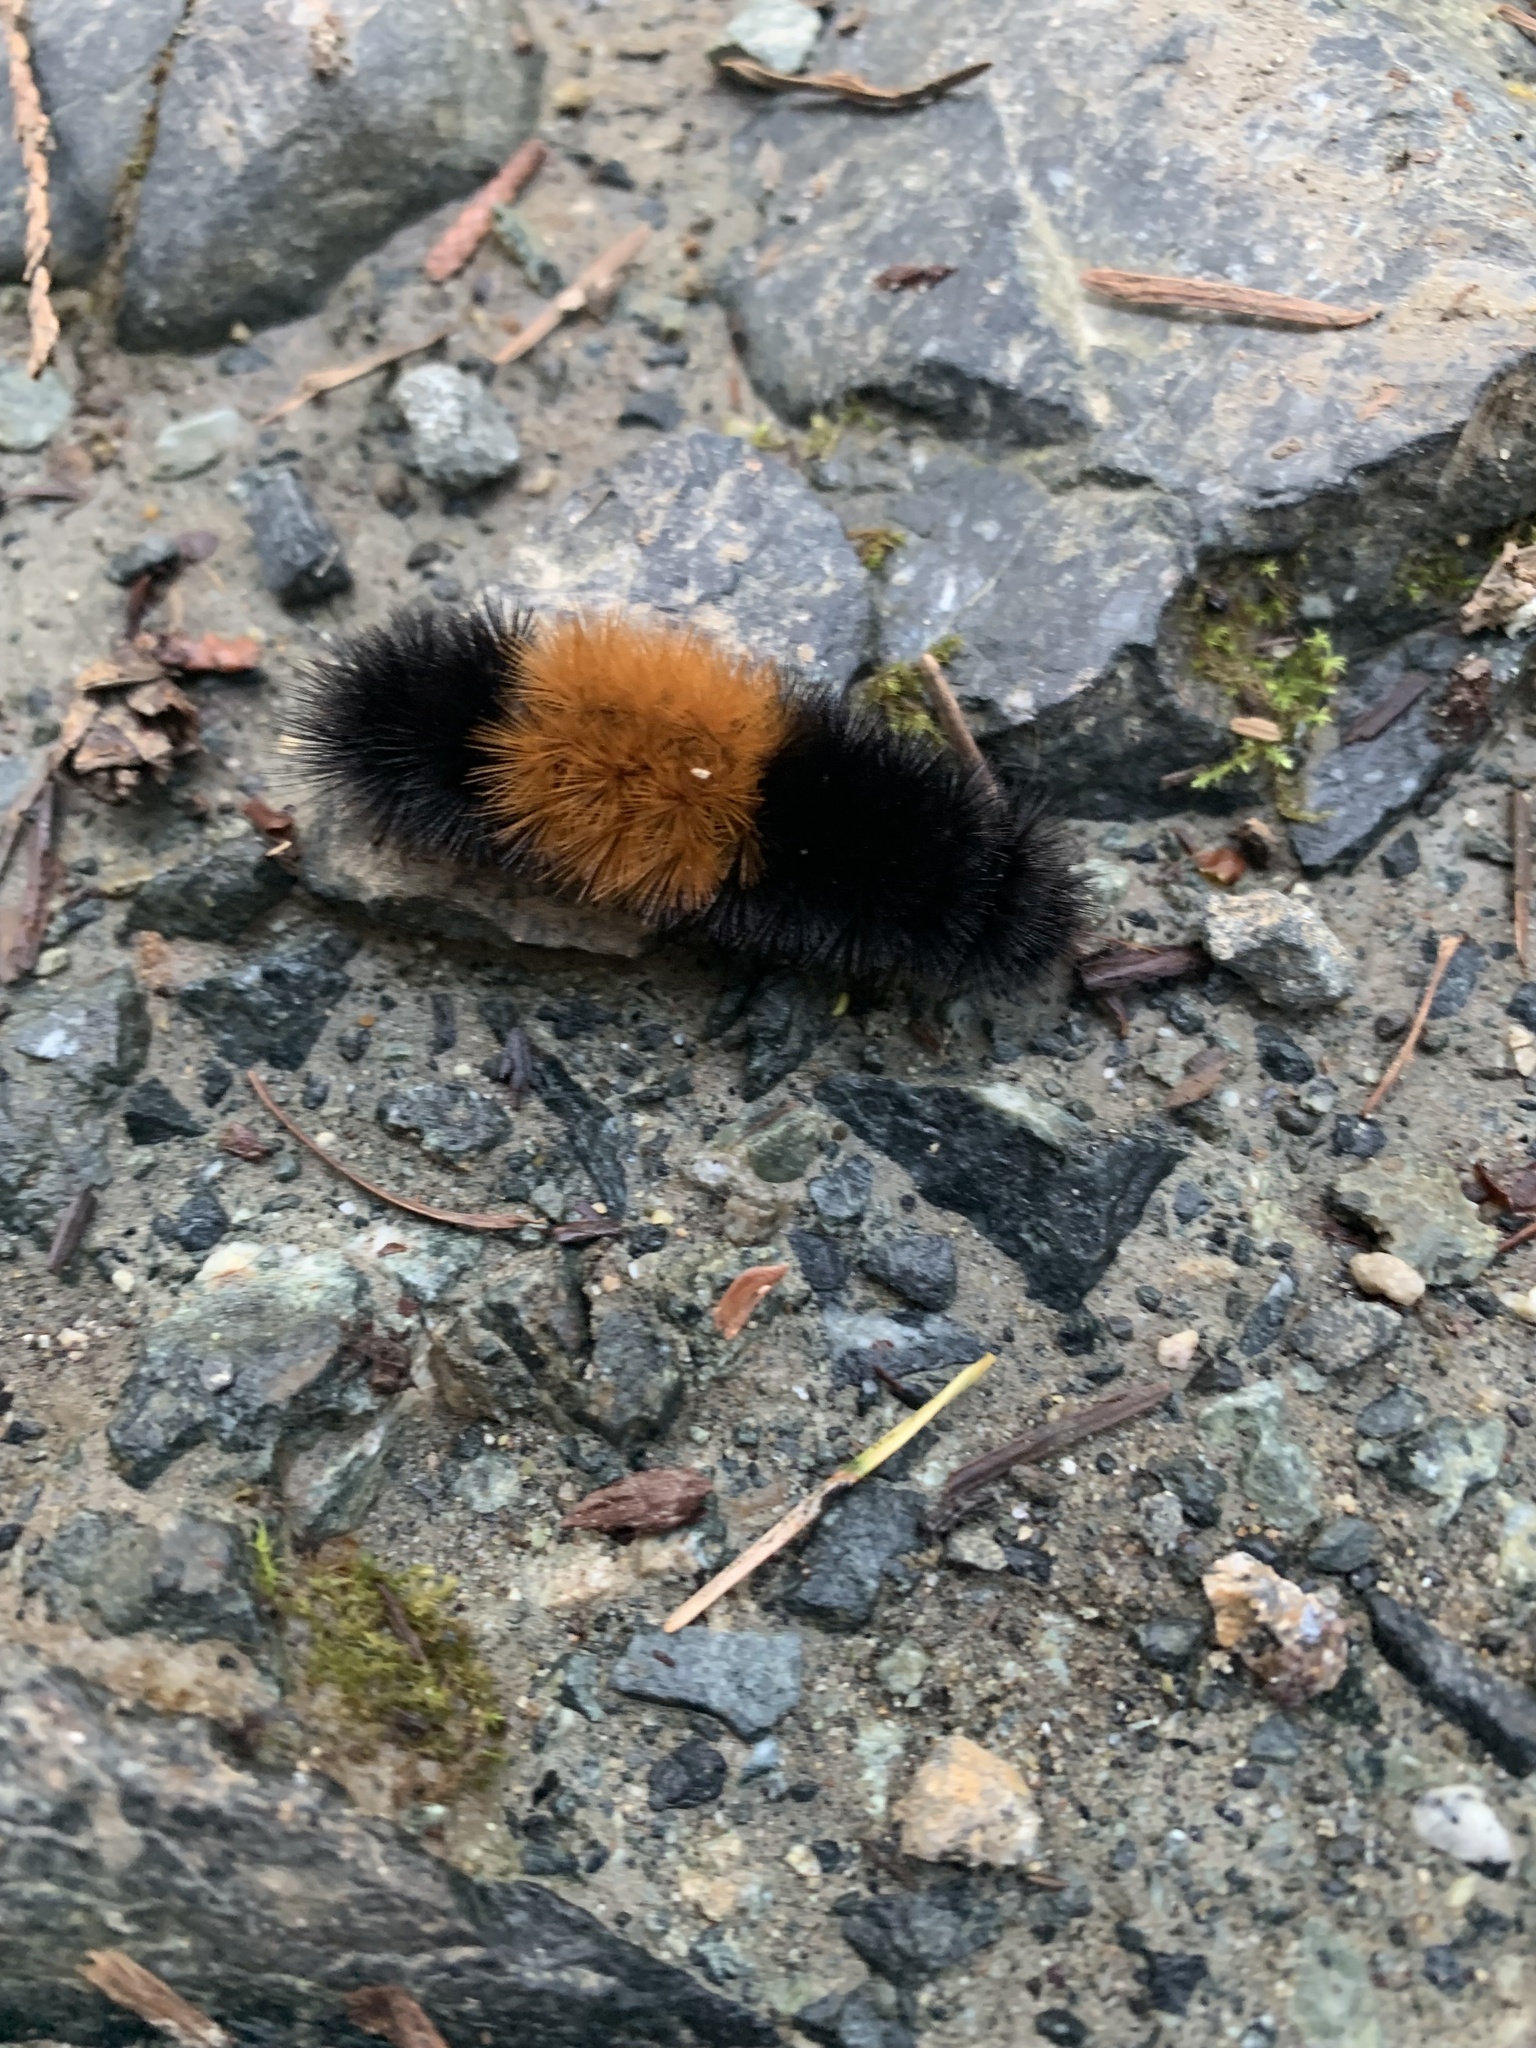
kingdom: Animalia
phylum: Arthropoda
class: Insecta
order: Lepidoptera
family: Erebidae
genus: Pyrrharctia
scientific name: Pyrrharctia isabella
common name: Isabella tiger moth
